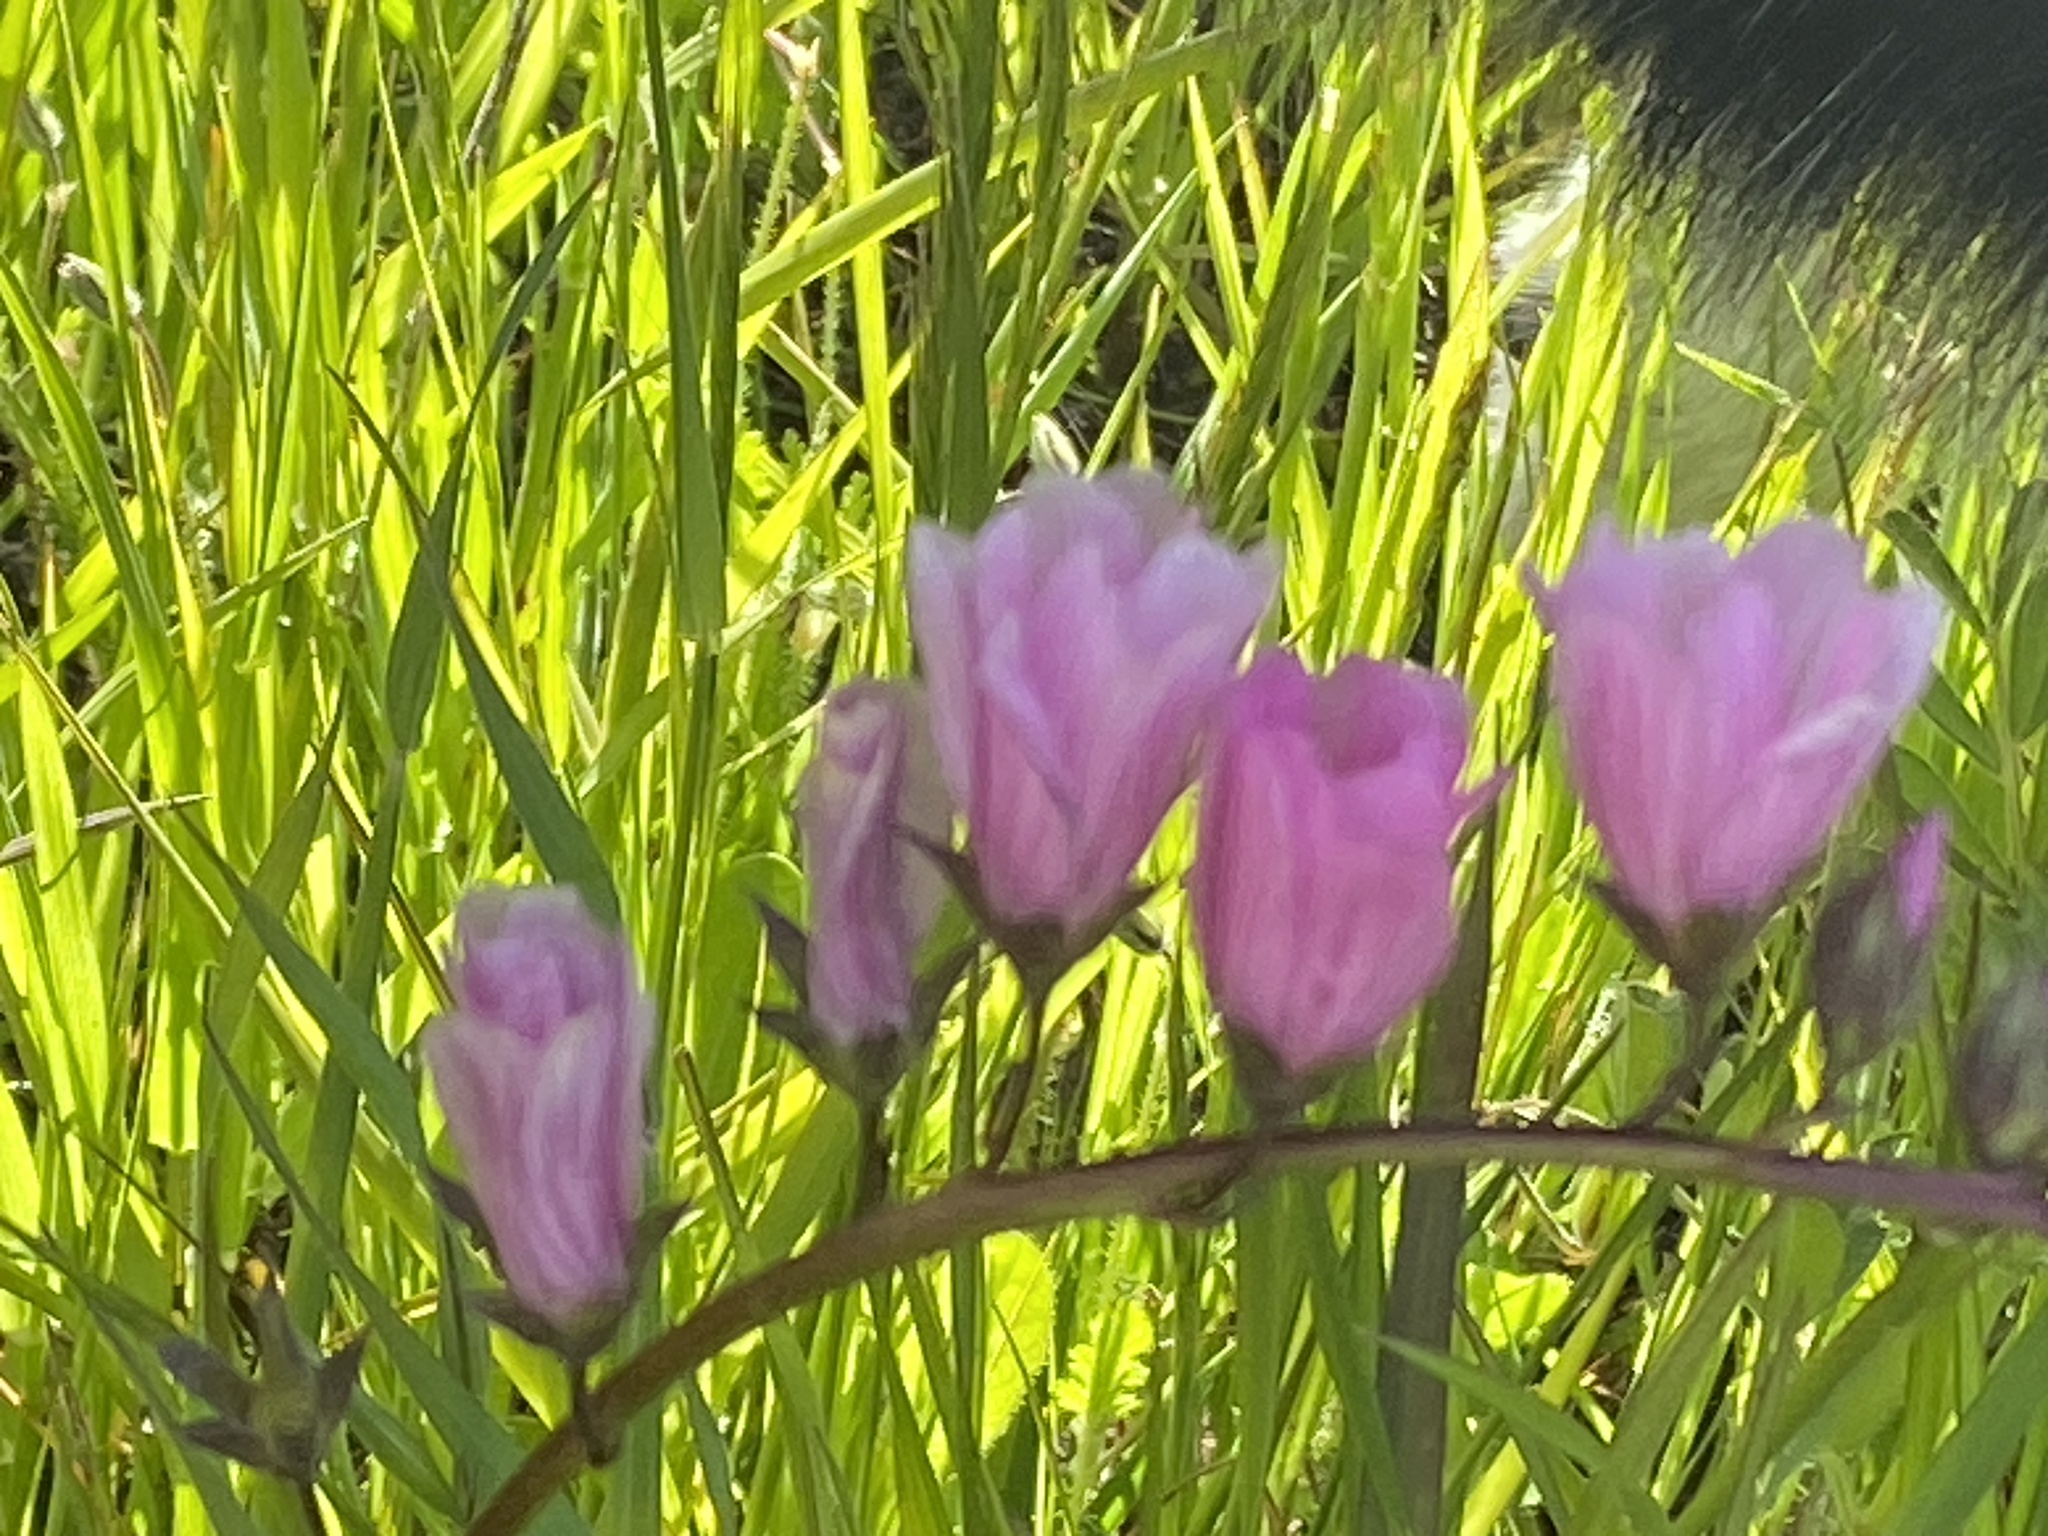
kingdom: Plantae
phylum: Tracheophyta
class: Magnoliopsida
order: Malvales
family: Malvaceae
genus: Sidalcea
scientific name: Sidalcea malviflora
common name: Greek mallow
